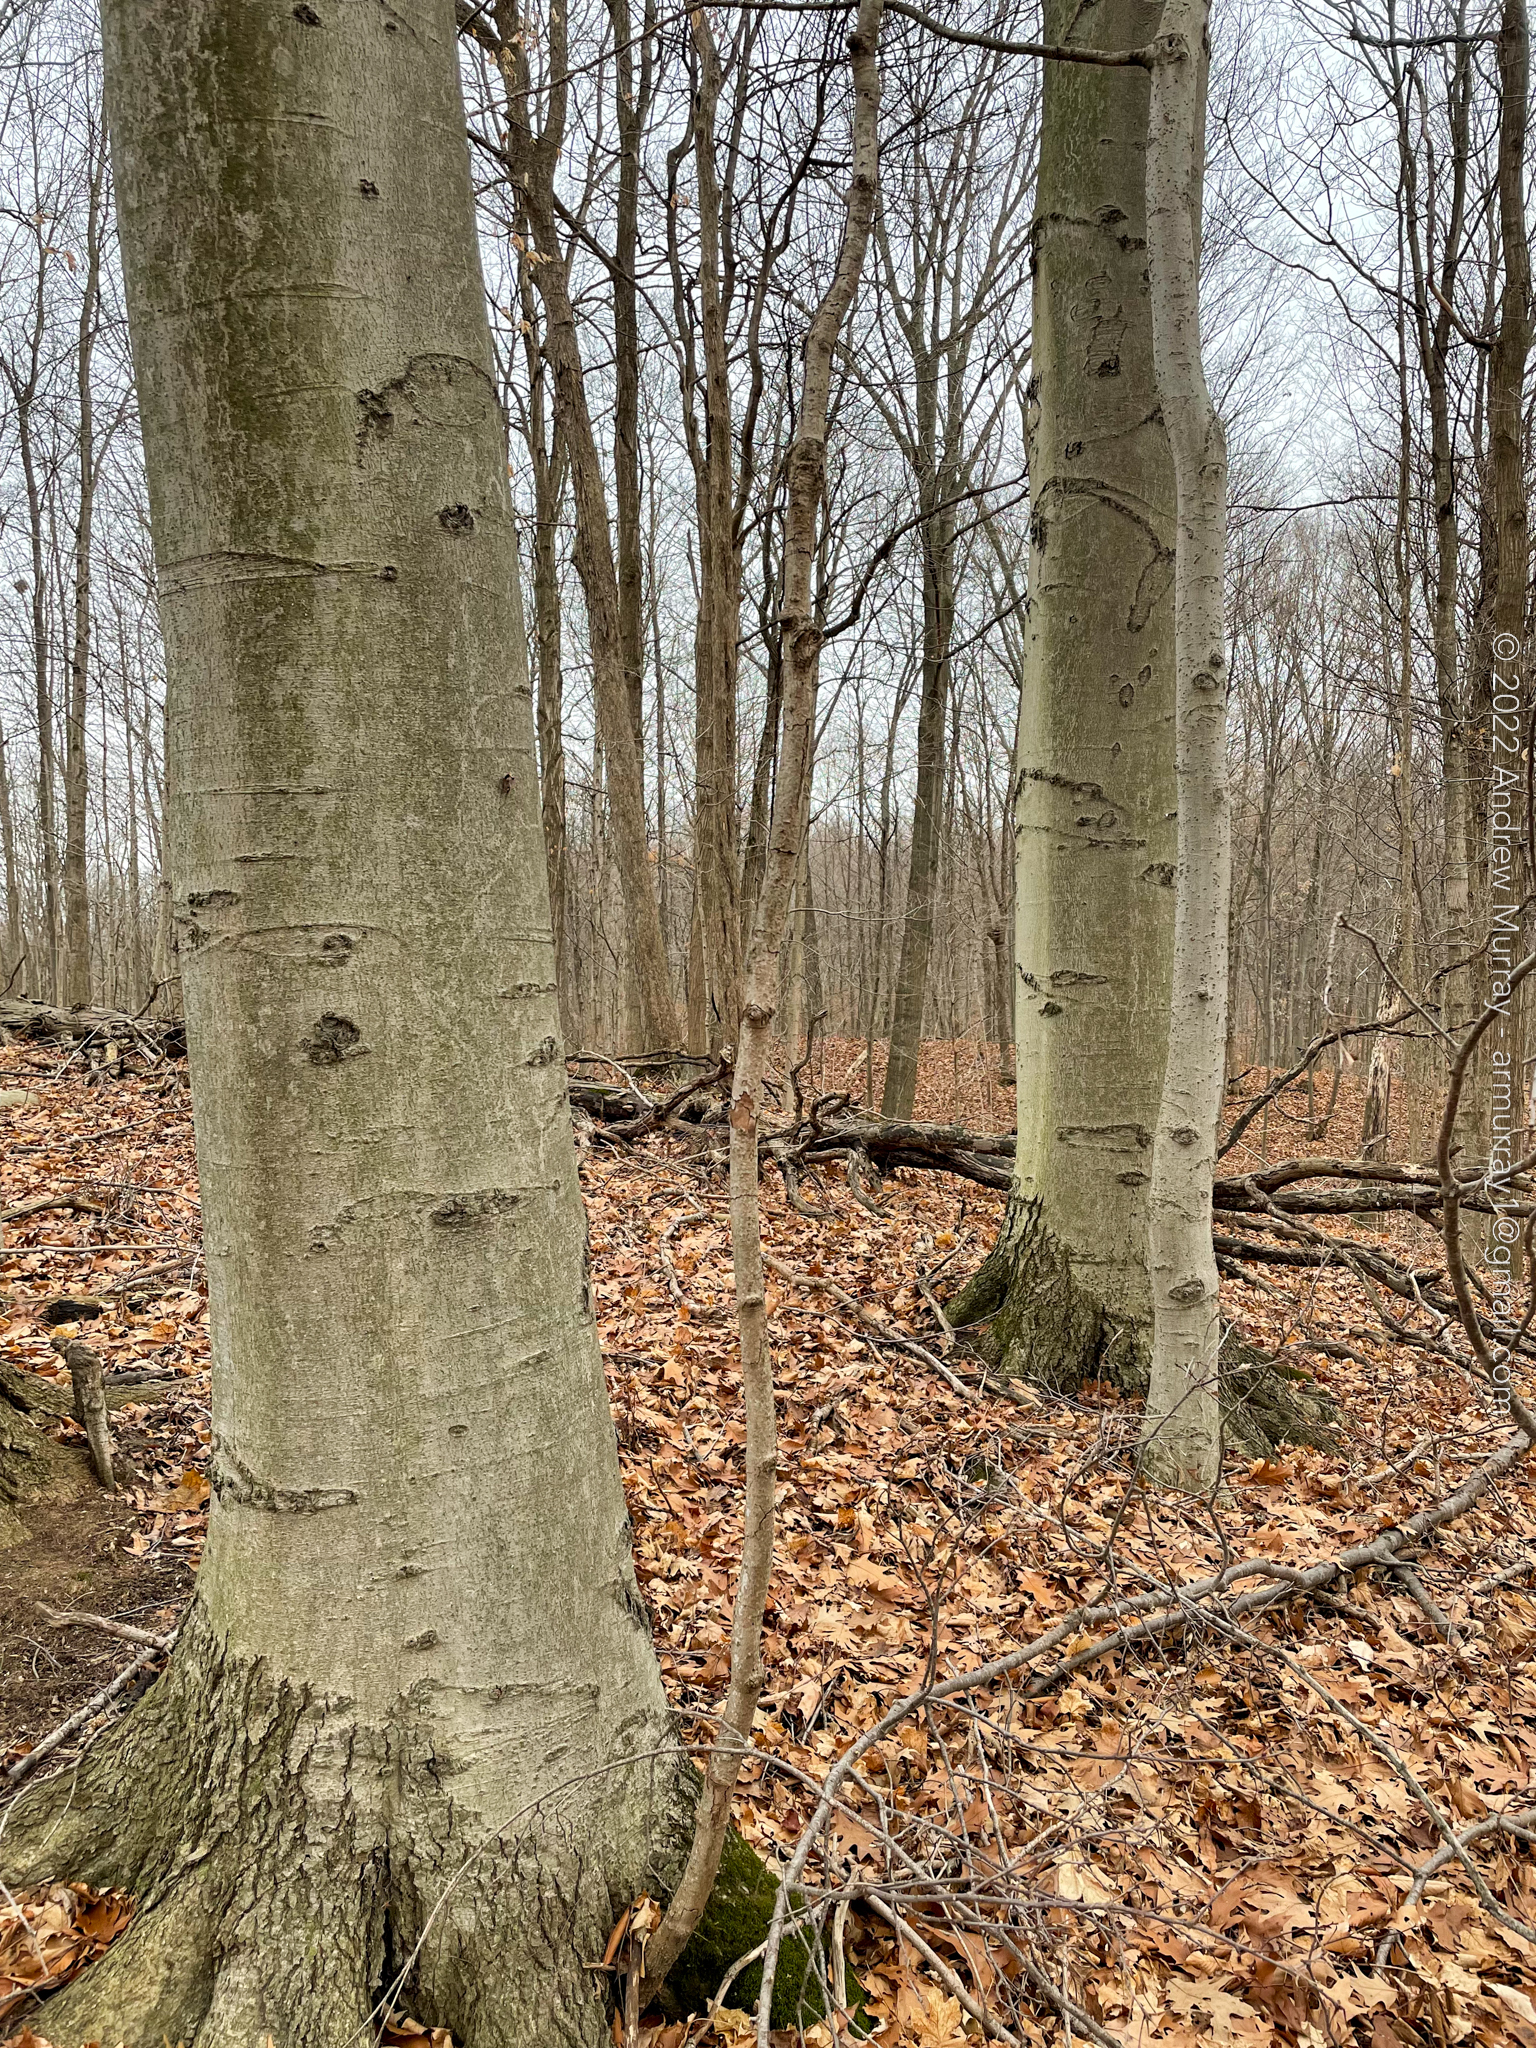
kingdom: Plantae
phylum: Tracheophyta
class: Magnoliopsida
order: Fagales
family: Fagaceae
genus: Fagus
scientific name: Fagus grandifolia
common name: American beech
